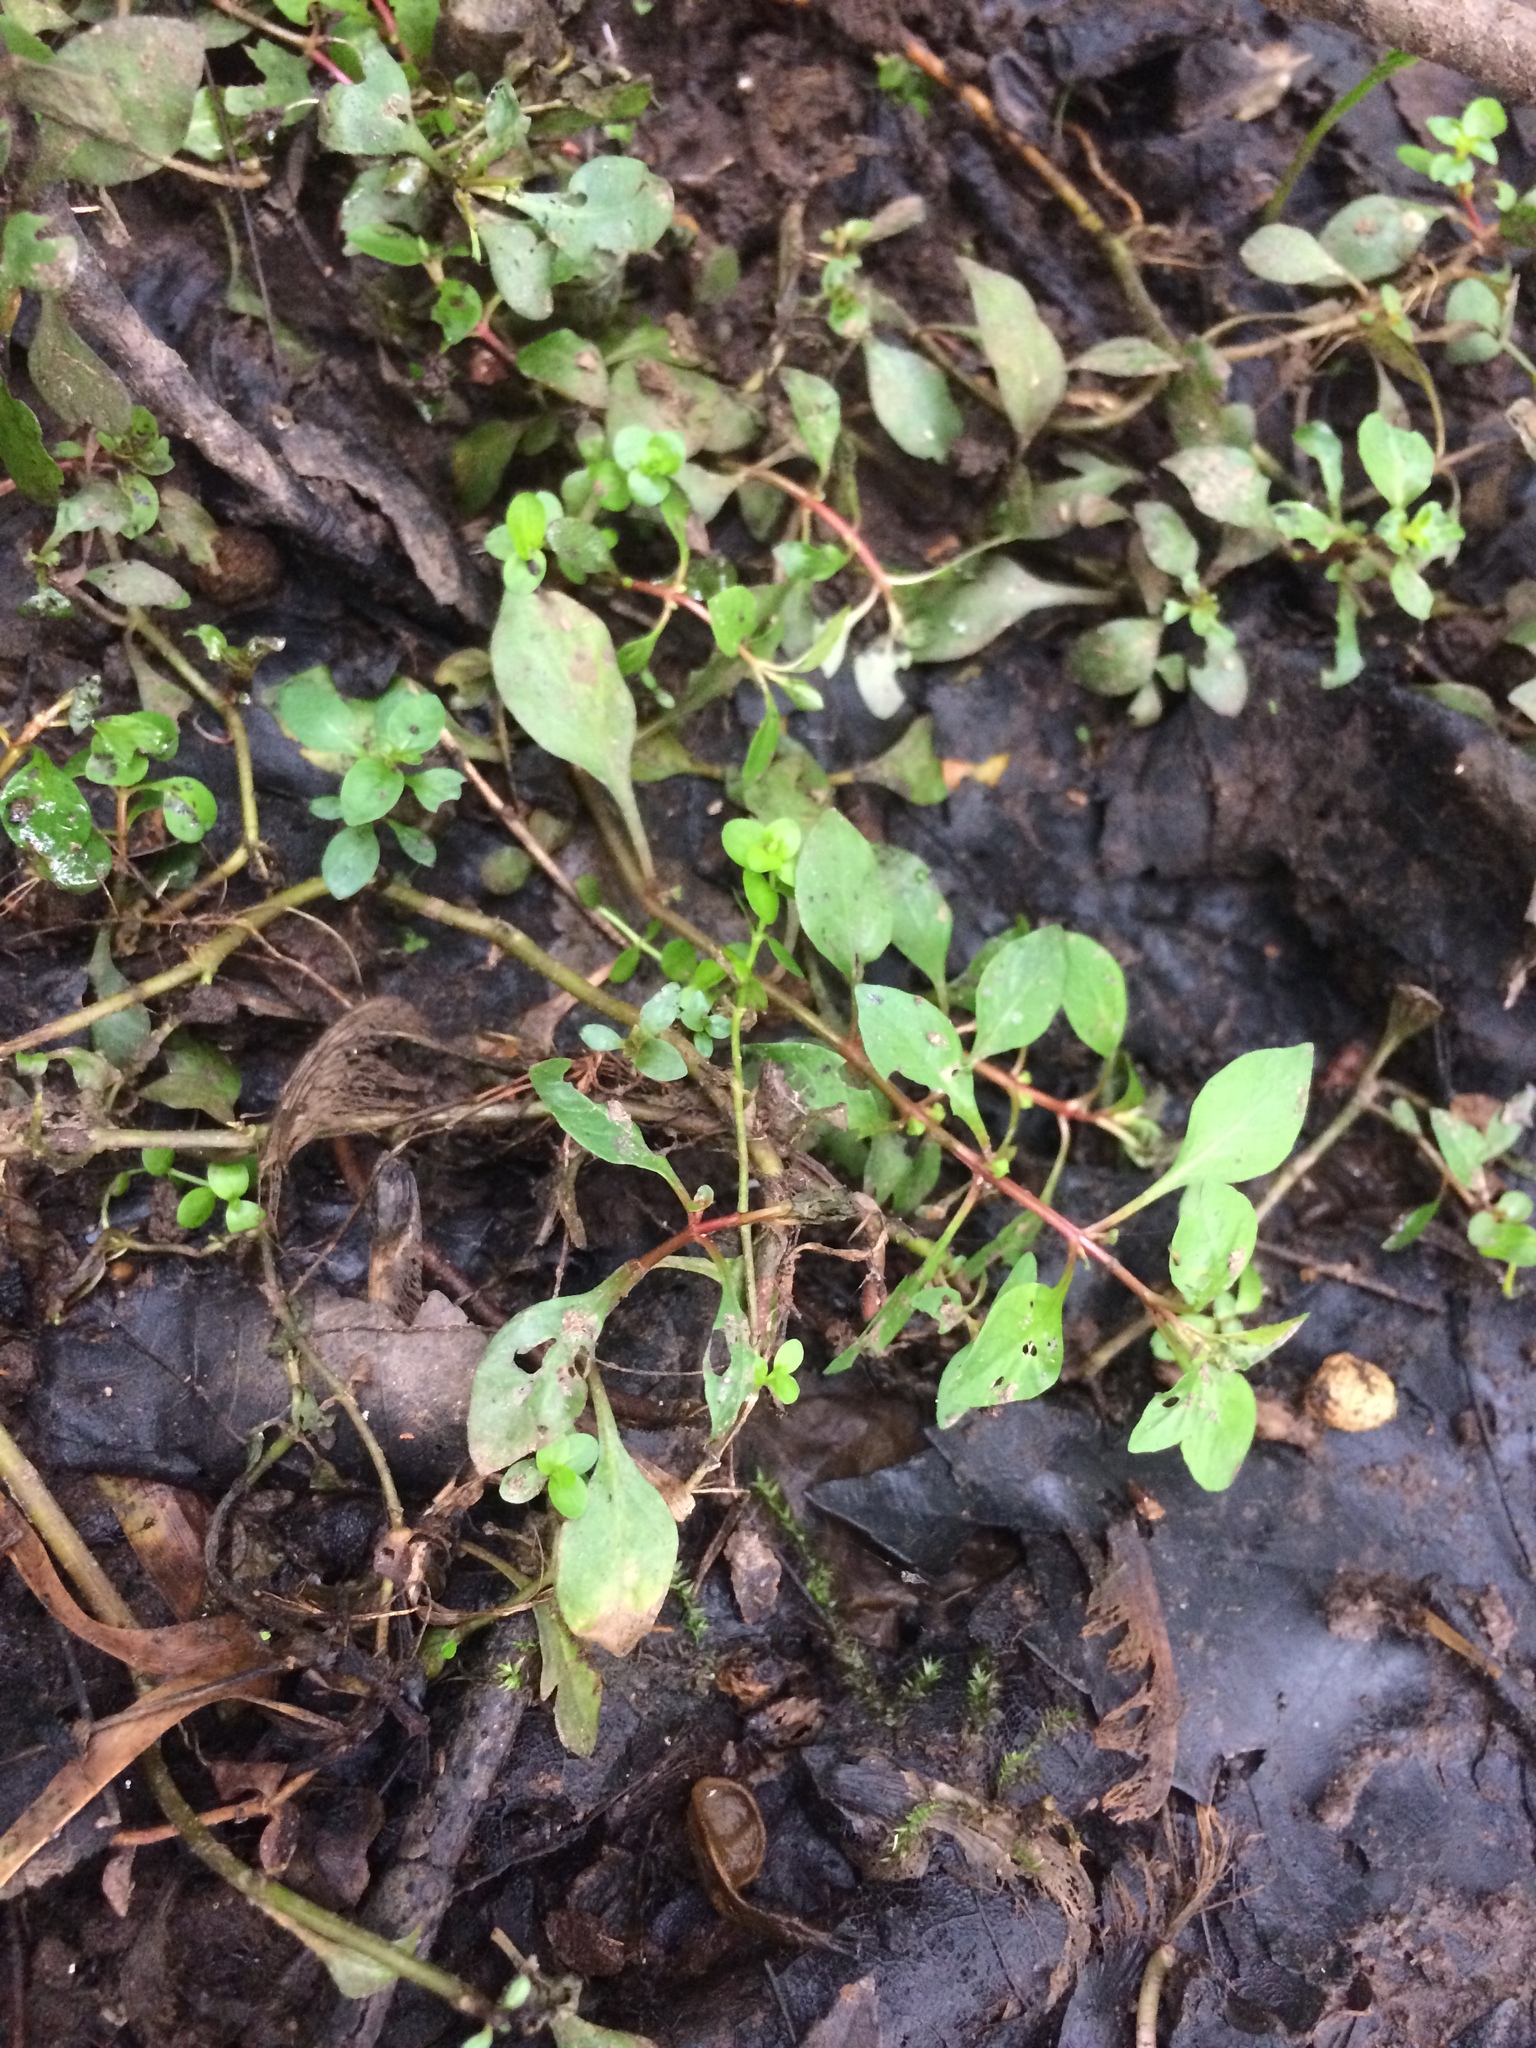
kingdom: Plantae
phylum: Tracheophyta
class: Magnoliopsida
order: Myrtales
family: Onagraceae
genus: Ludwigia
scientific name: Ludwigia palustris
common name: Hampshire-purslane
